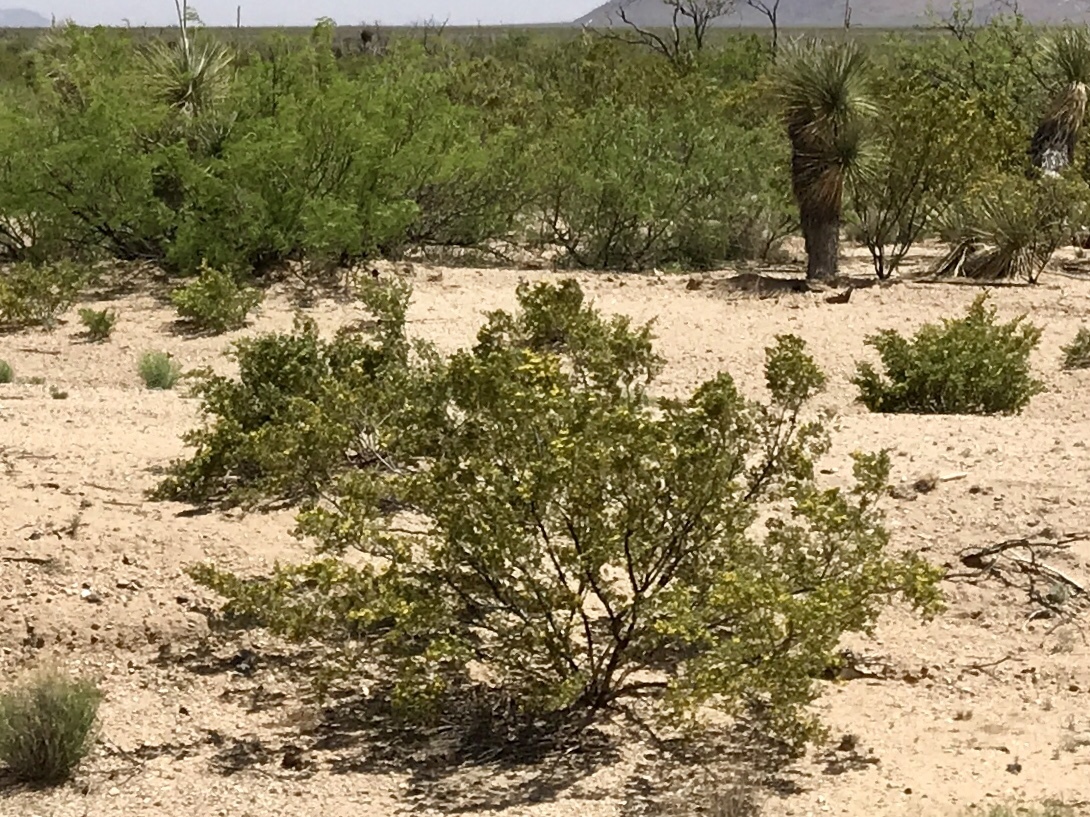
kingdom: Plantae
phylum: Tracheophyta
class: Magnoliopsida
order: Zygophyllales
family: Zygophyllaceae
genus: Larrea
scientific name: Larrea tridentata
